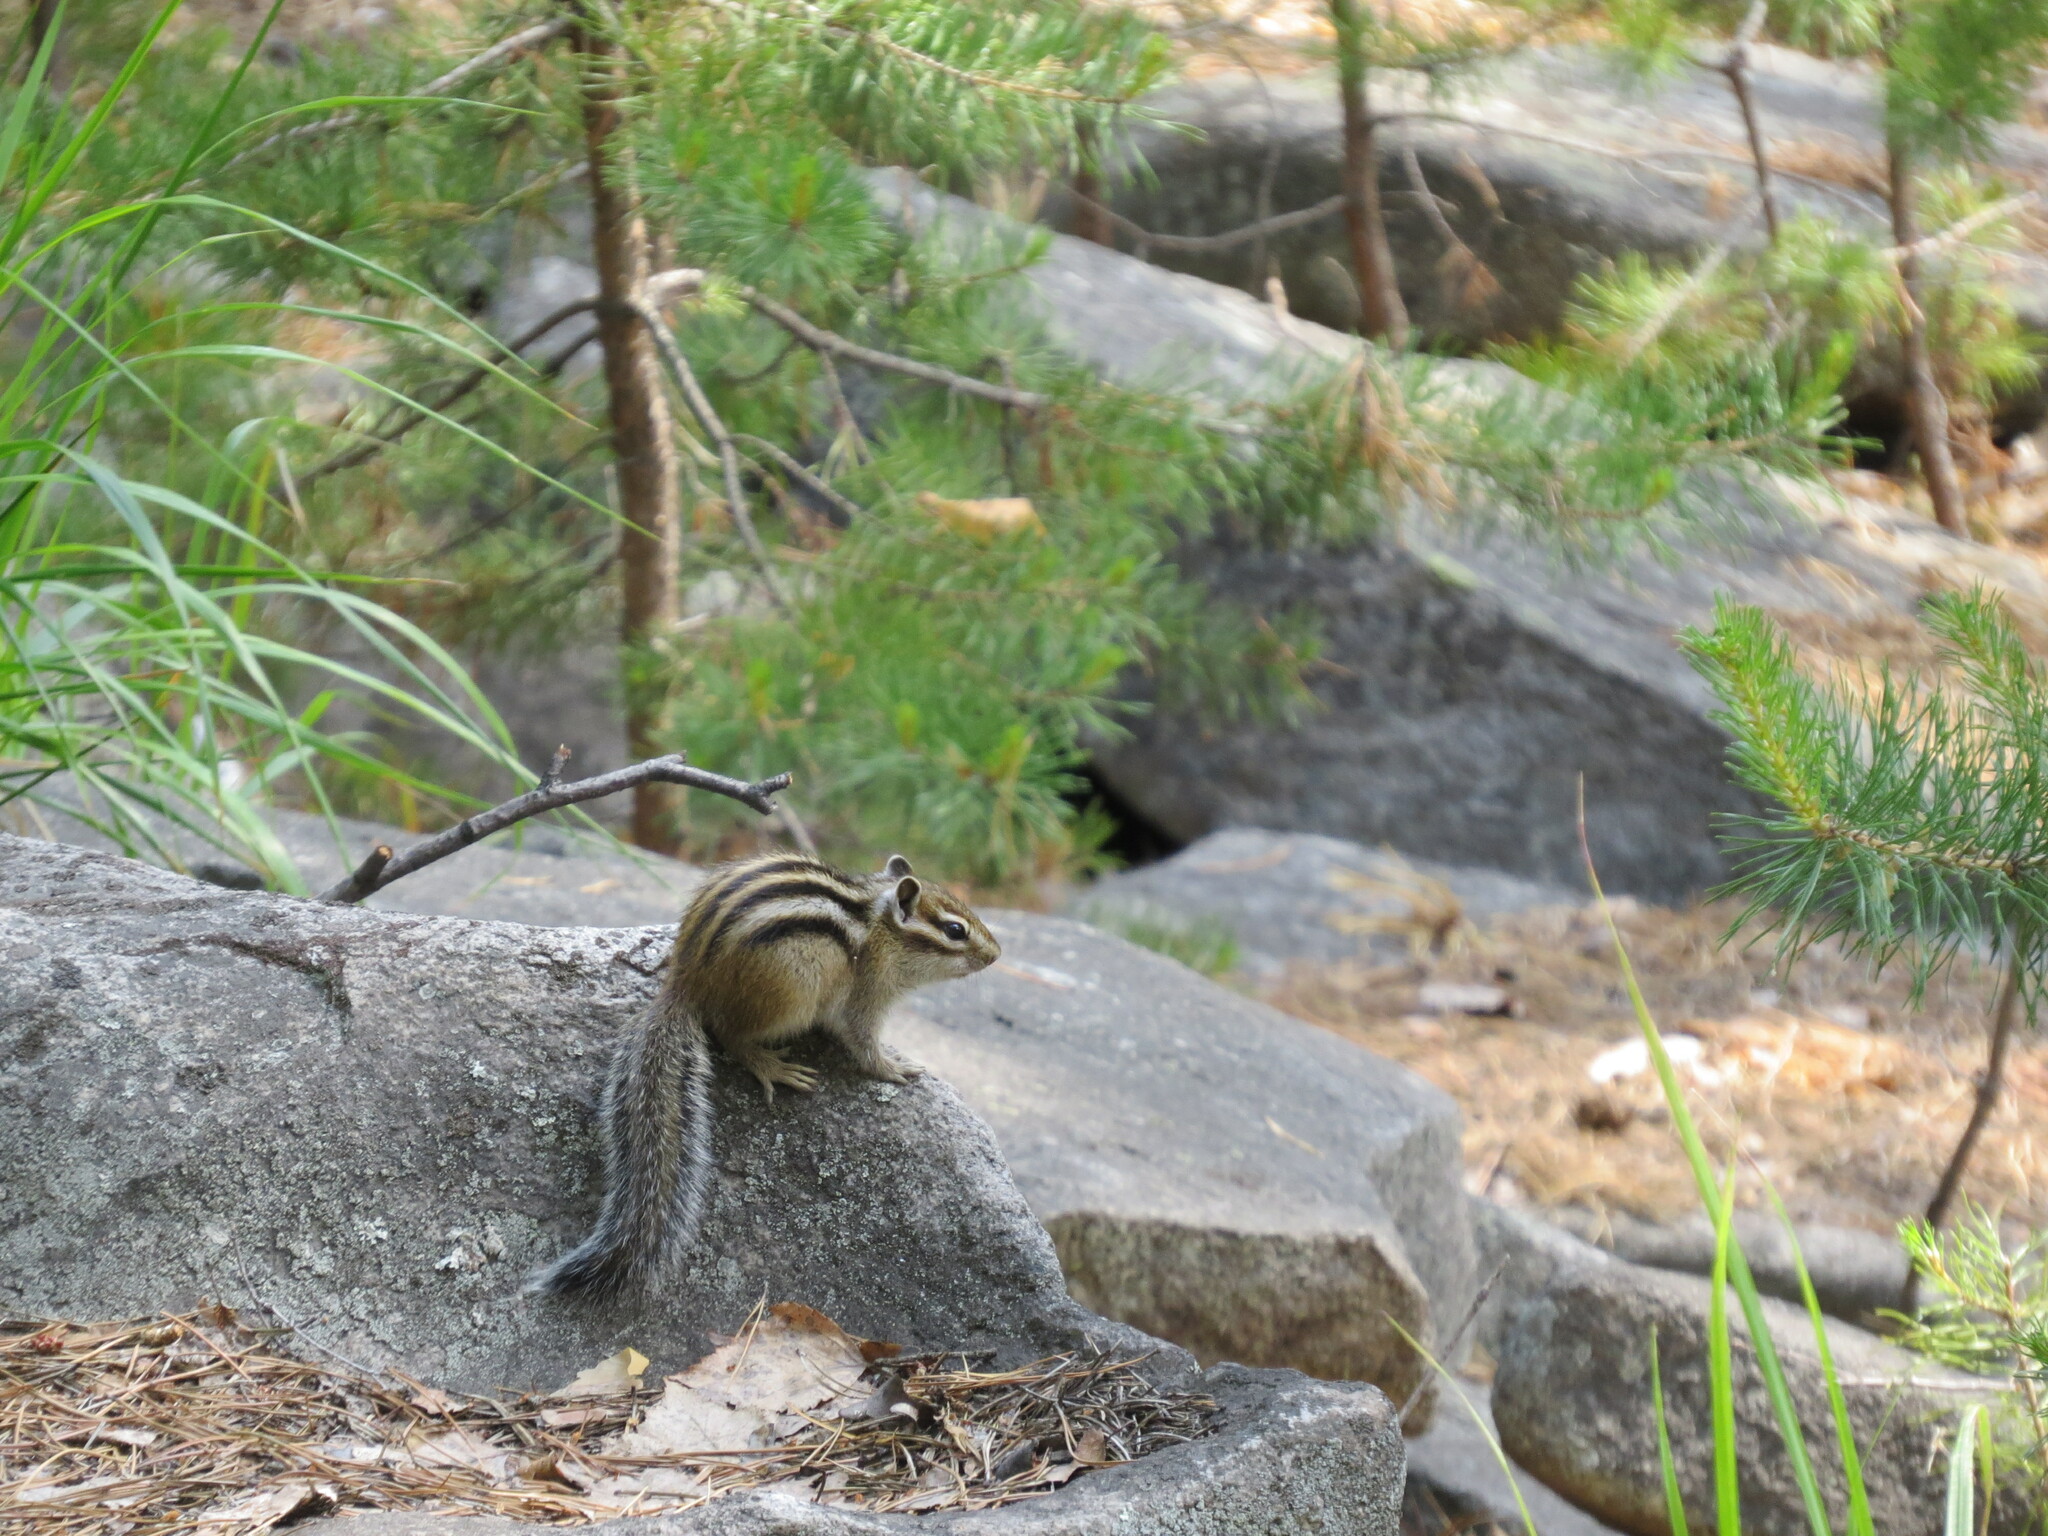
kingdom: Animalia
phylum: Chordata
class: Mammalia
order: Rodentia
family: Sciuridae
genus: Tamias
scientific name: Tamias sibiricus
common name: Siberian chipmunk
